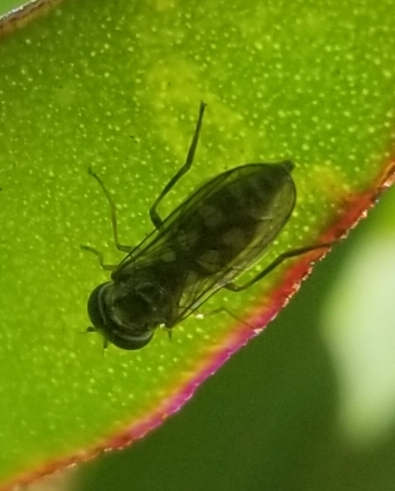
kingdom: Animalia
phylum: Arthropoda
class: Insecta
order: Diptera
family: Syrphidae
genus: Melanostoma
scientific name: Melanostoma mellina
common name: Hover fly
